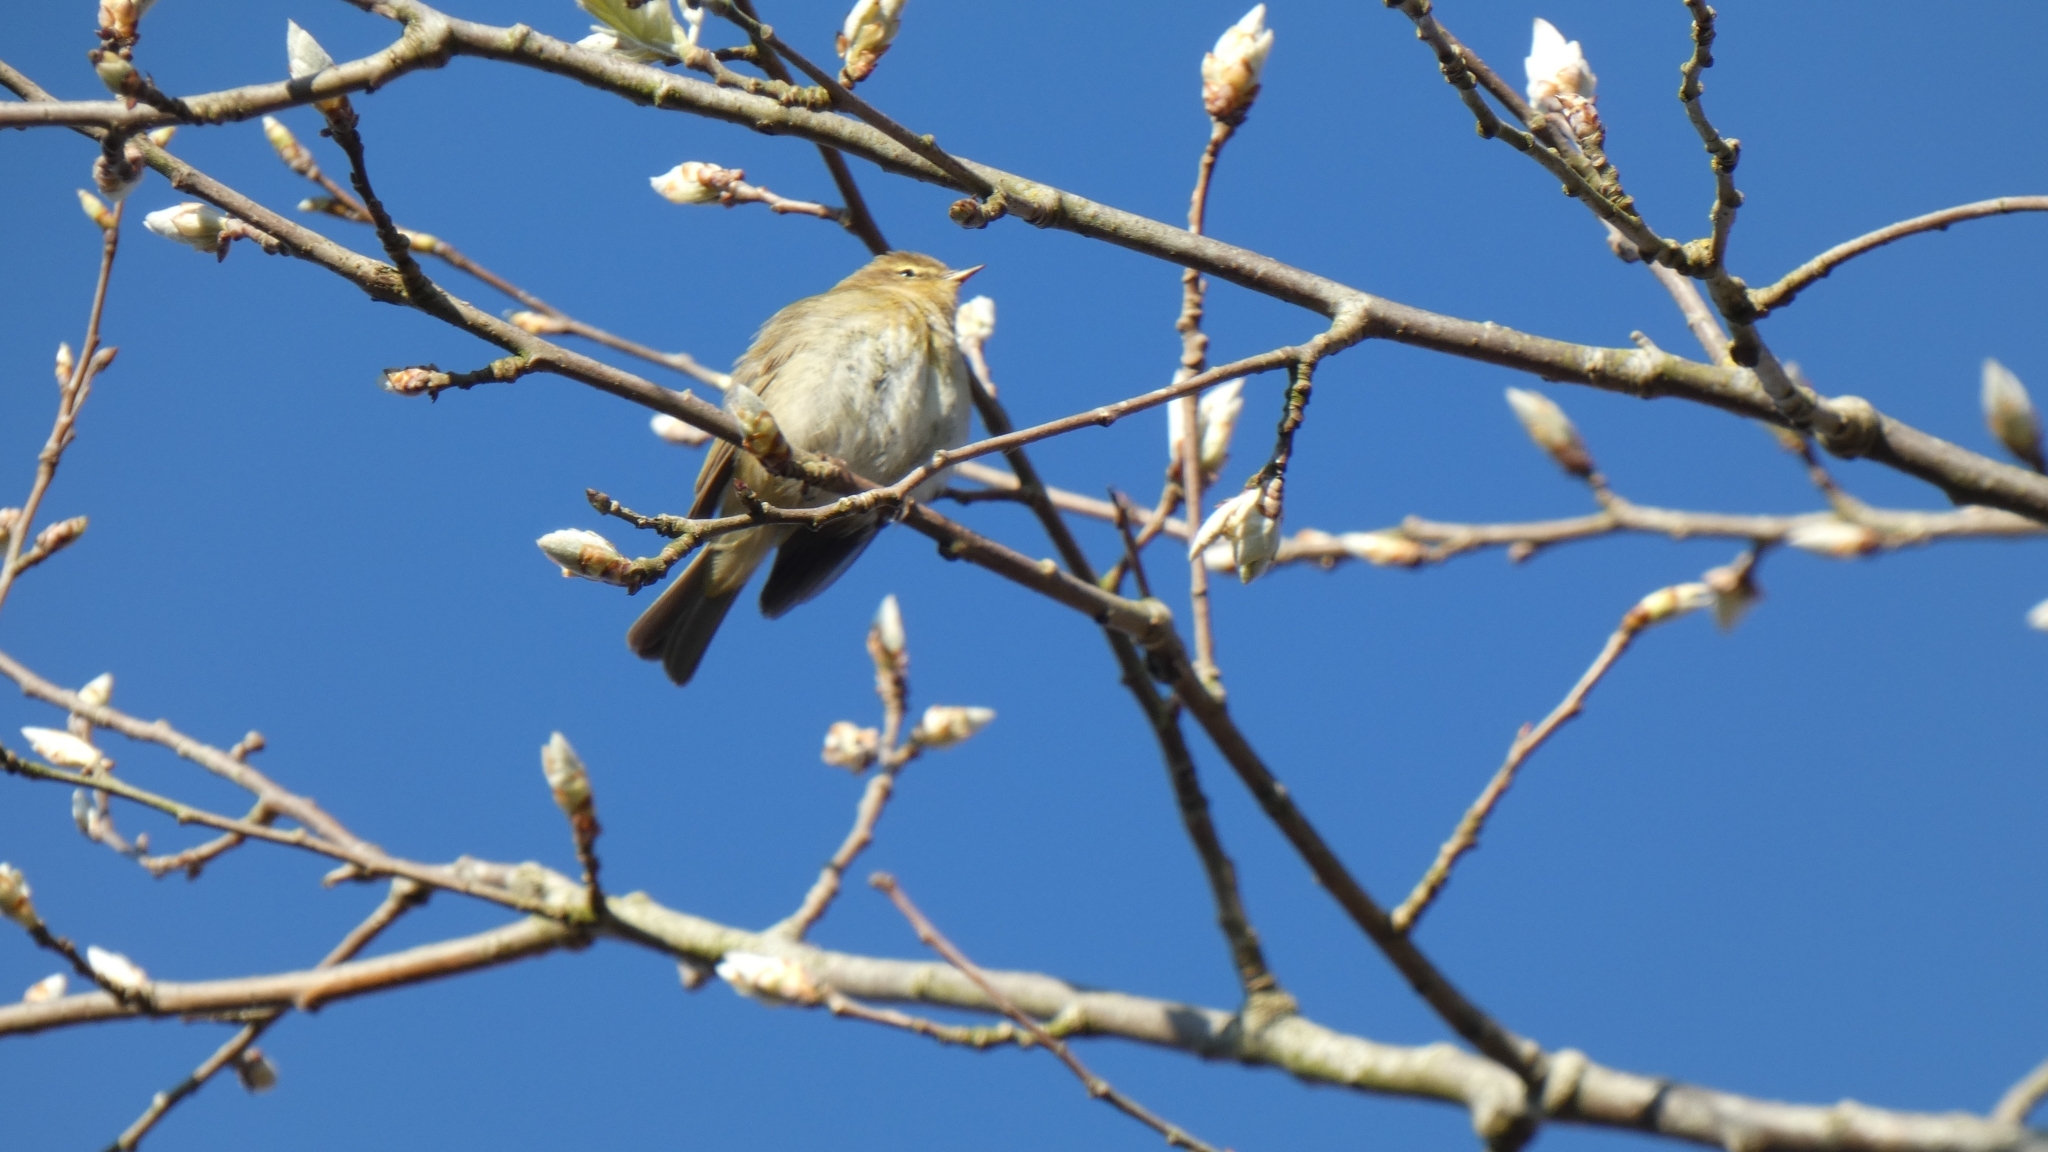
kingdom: Animalia
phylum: Chordata
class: Aves
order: Passeriformes
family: Phylloscopidae
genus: Phylloscopus
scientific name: Phylloscopus collybita
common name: Common chiffchaff
